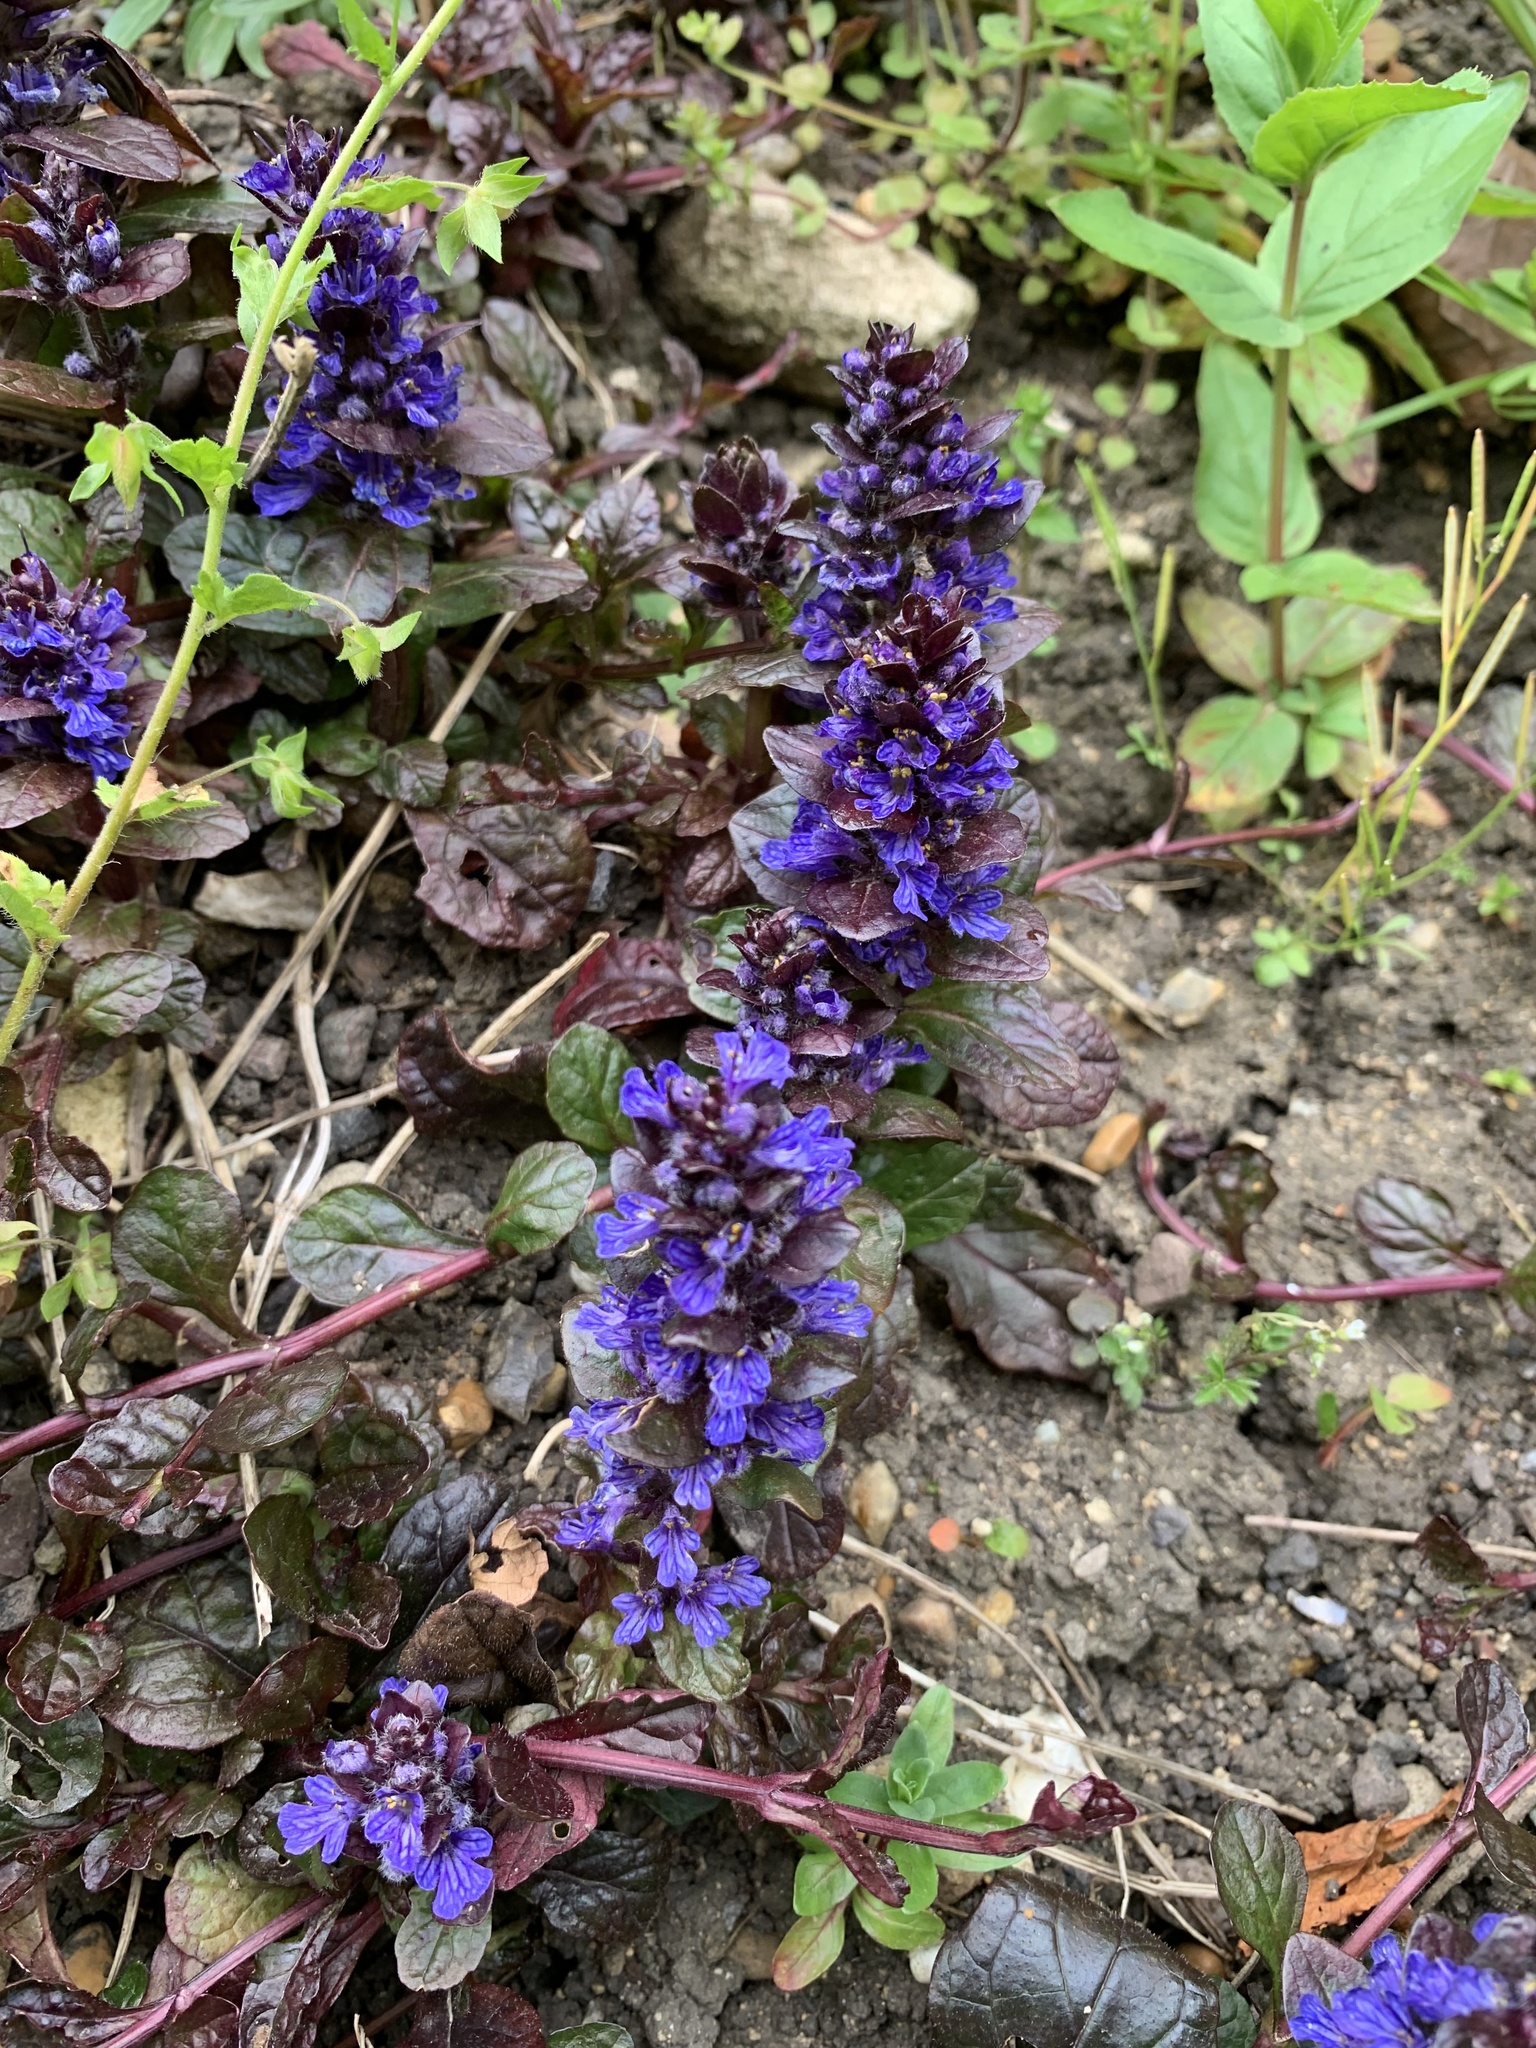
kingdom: Plantae
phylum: Tracheophyta
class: Magnoliopsida
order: Lamiales
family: Lamiaceae
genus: Ajuga
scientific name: Ajuga reptans
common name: Bugle
